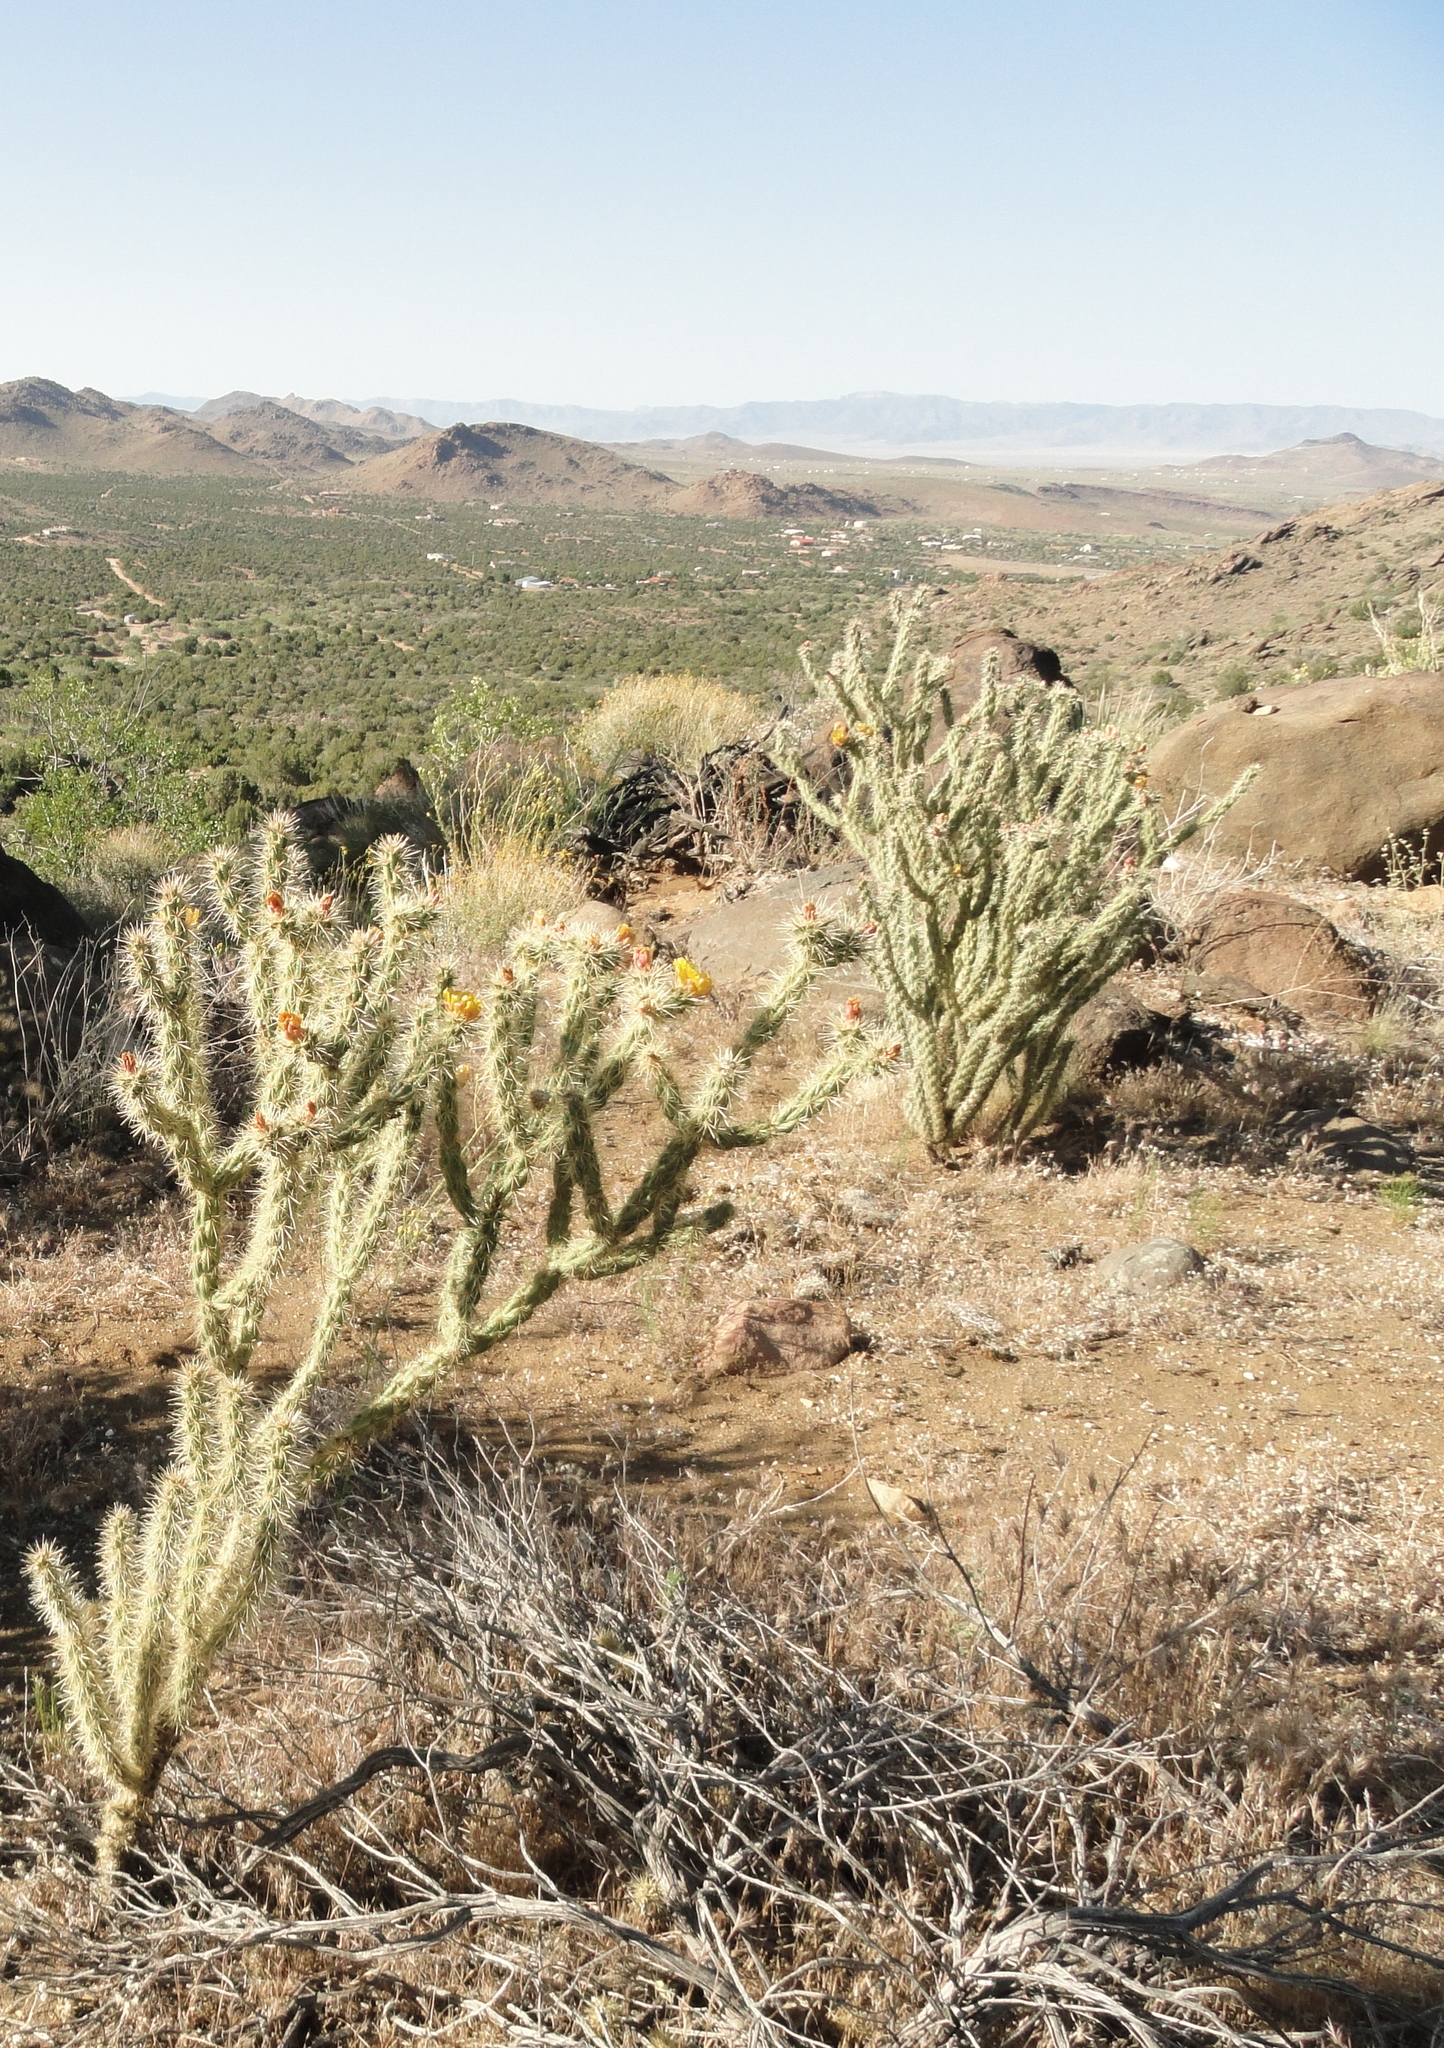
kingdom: Plantae
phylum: Tracheophyta
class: Magnoliopsida
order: Caryophyllales
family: Cactaceae
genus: Cylindropuntia
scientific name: Cylindropuntia acanthocarpa
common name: Buckhorn cholla
